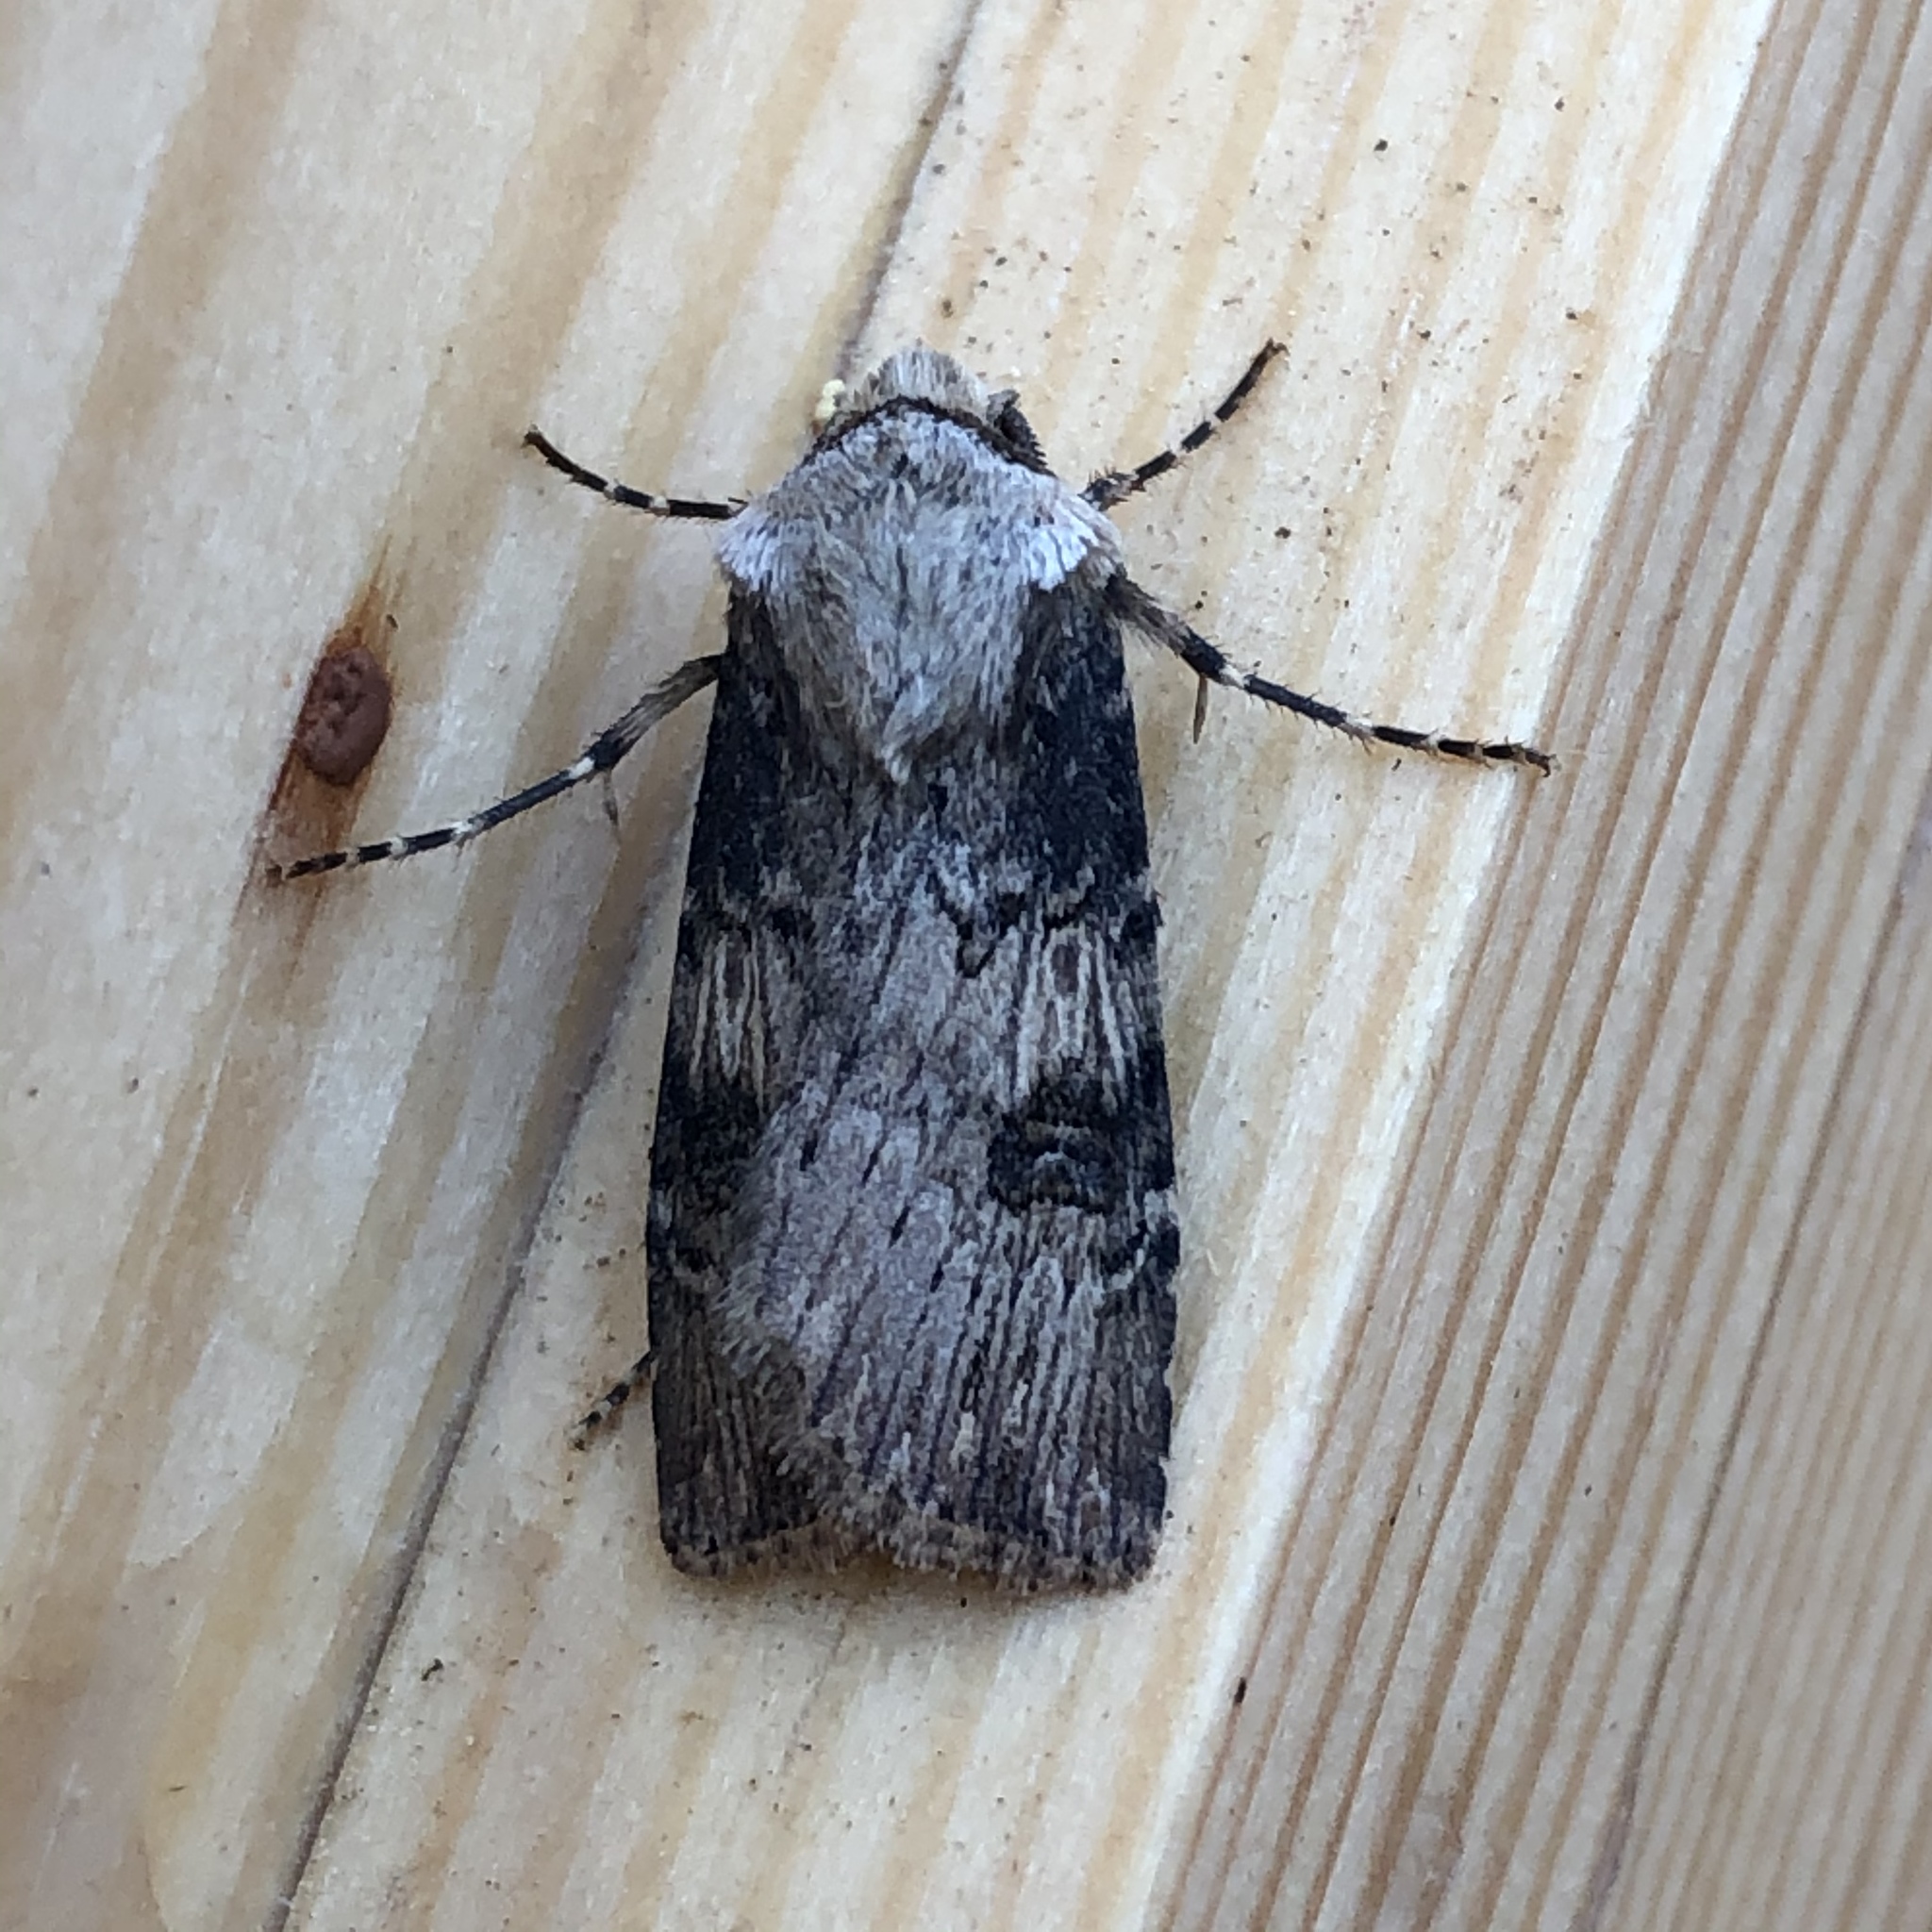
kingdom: Animalia
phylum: Arthropoda
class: Insecta
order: Lepidoptera
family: Noctuidae
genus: Agrotis
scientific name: Agrotis puta
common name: Shuttle-shaped dart
